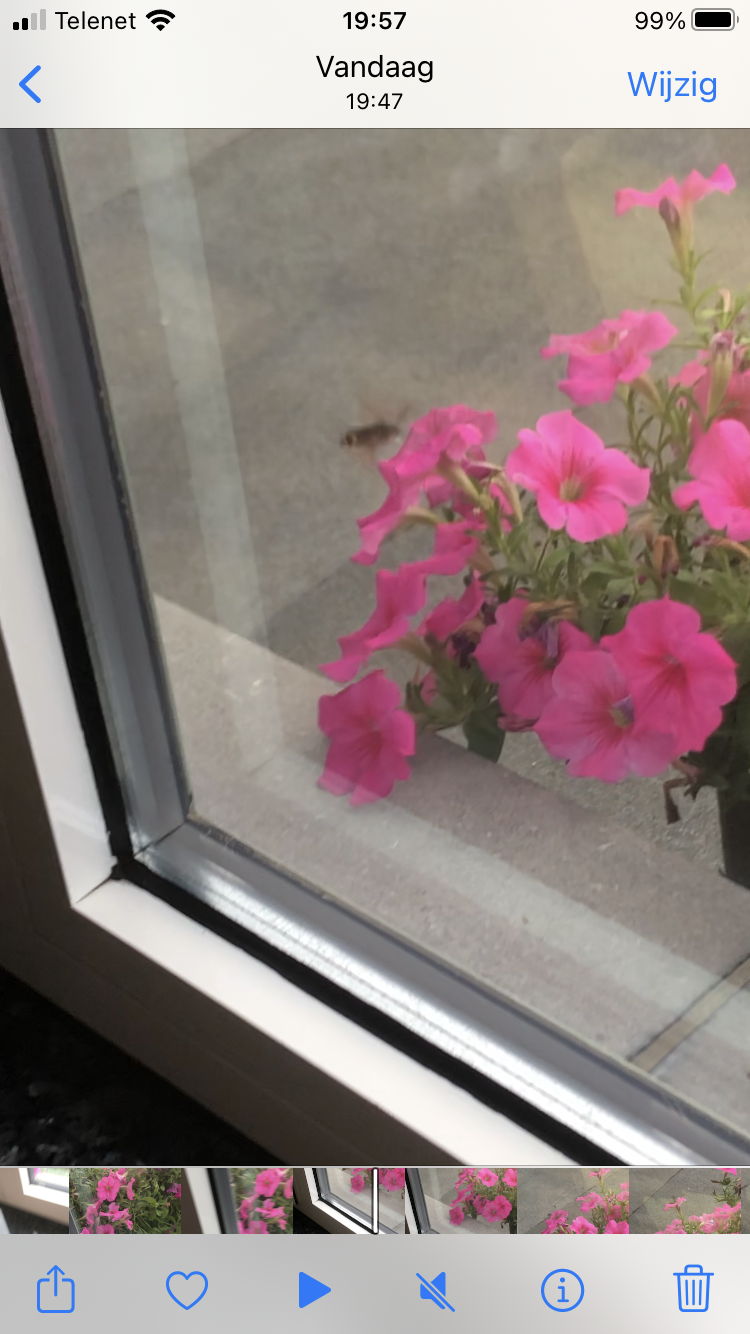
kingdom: Animalia
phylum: Arthropoda
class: Insecta
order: Lepidoptera
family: Sphingidae
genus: Macroglossum
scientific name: Macroglossum stellatarum
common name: Humming-bird hawk-moth
